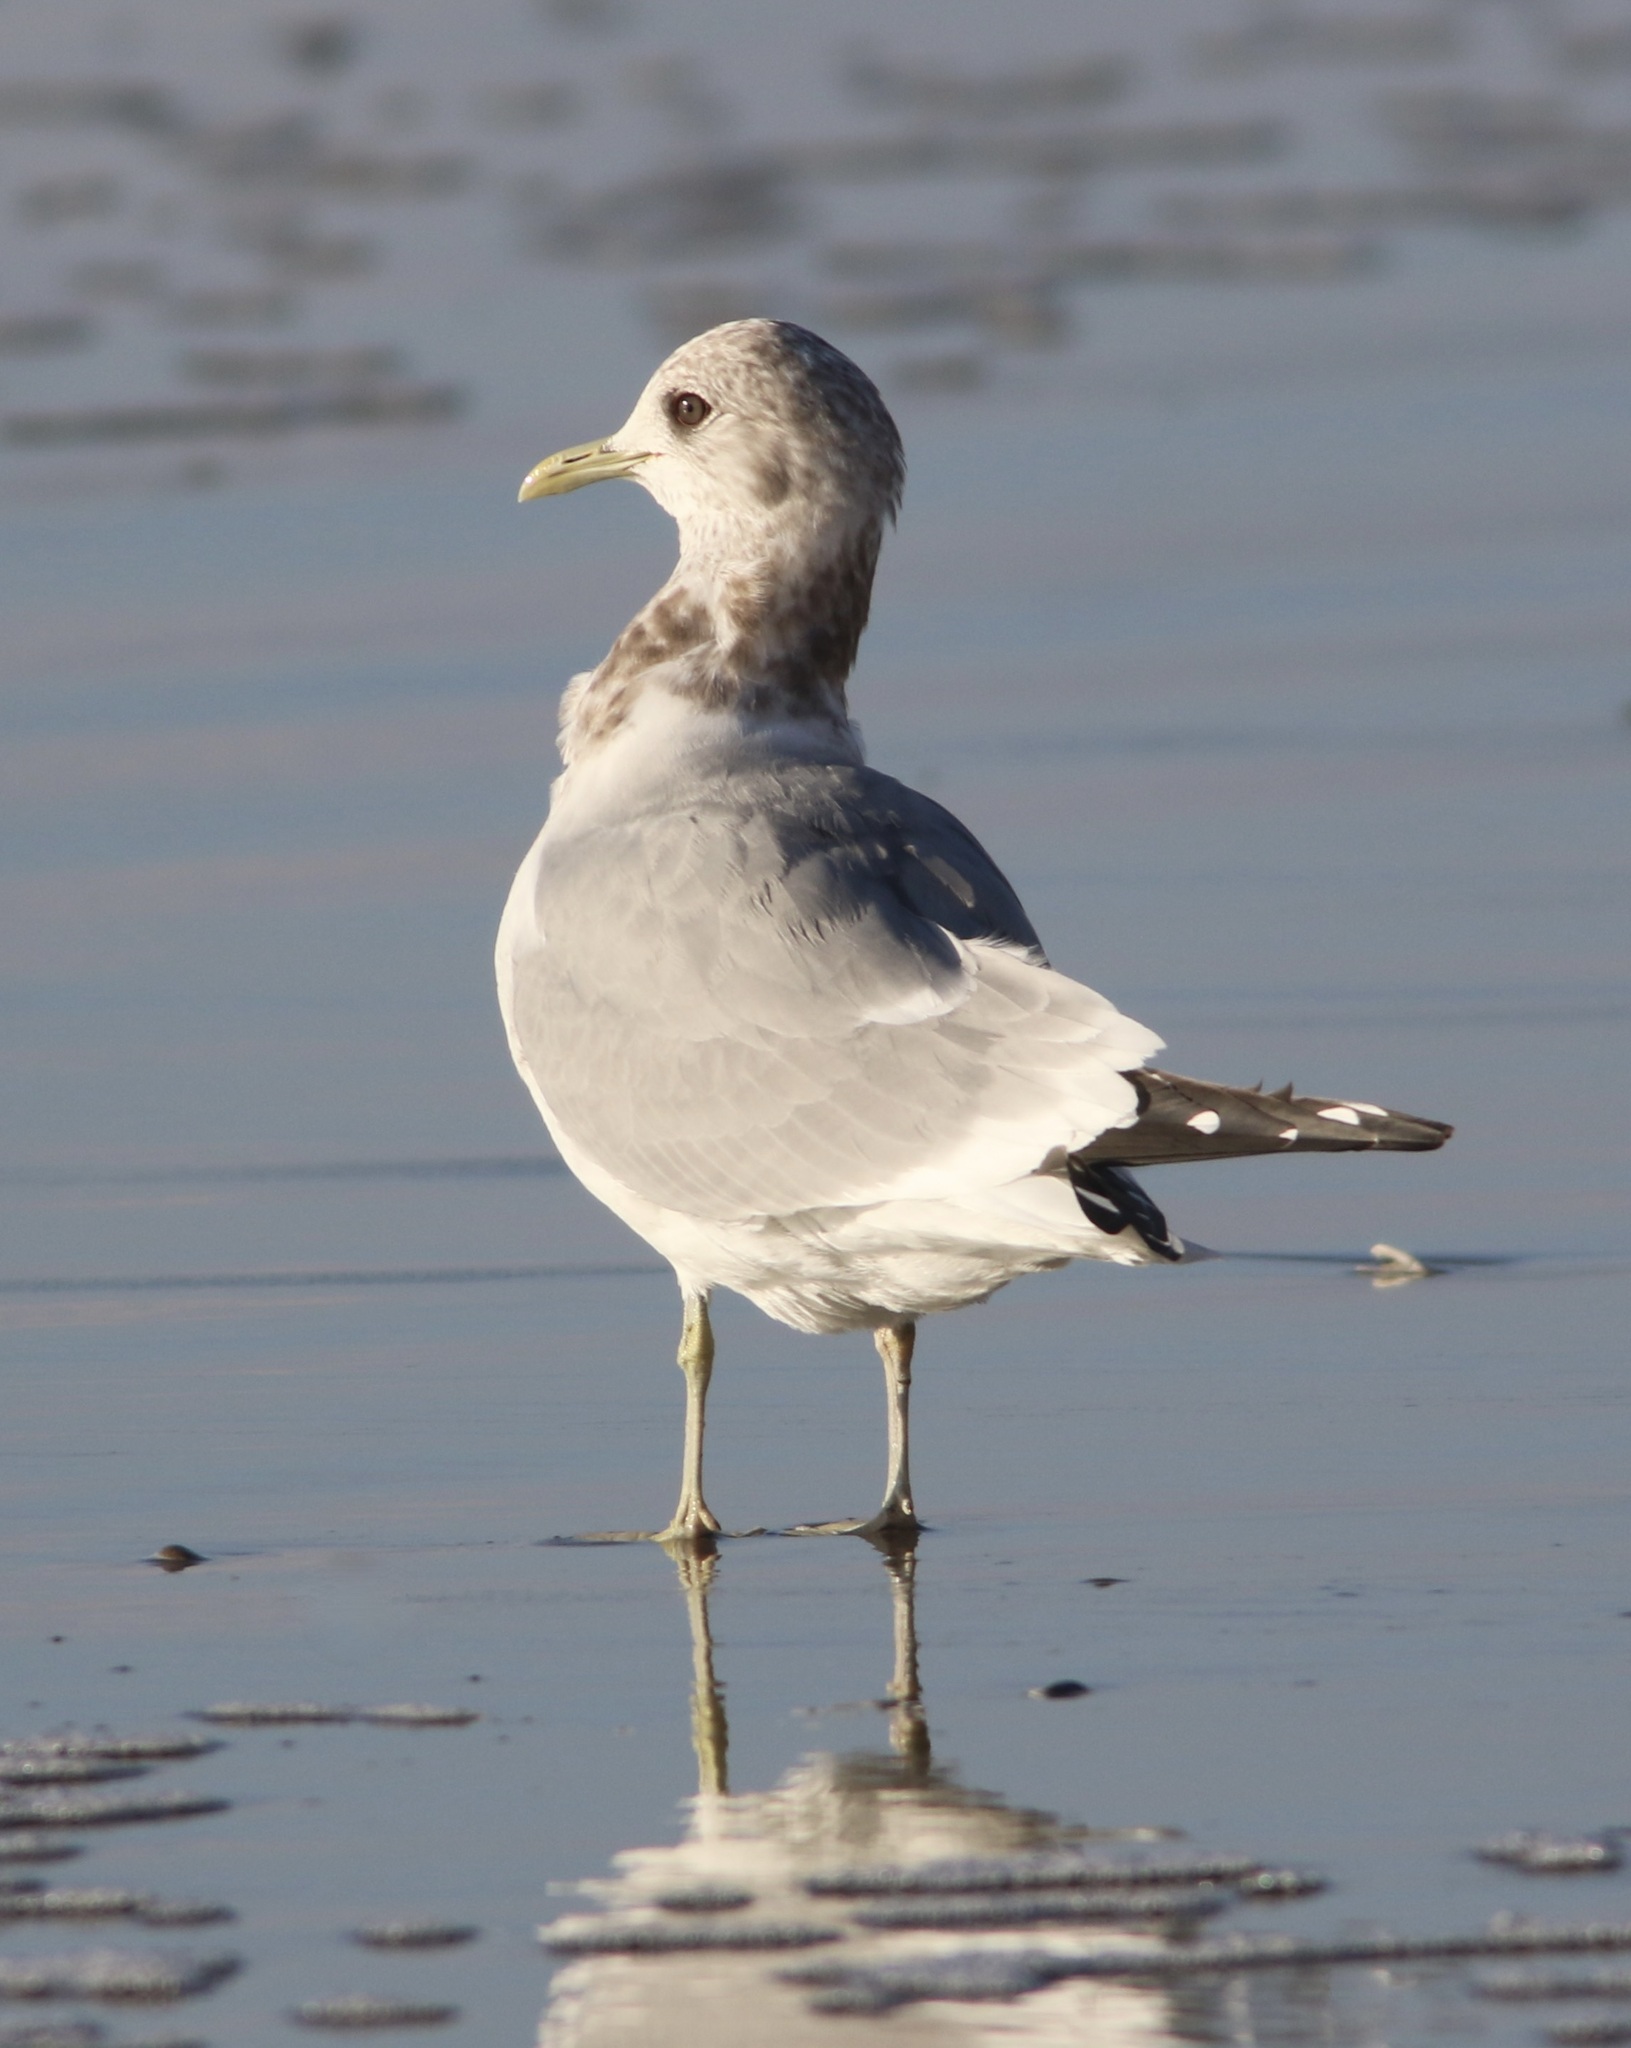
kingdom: Animalia
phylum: Chordata
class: Aves
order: Charadriiformes
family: Laridae
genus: Larus
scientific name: Larus brachyrhynchus
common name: Short-billed gull
